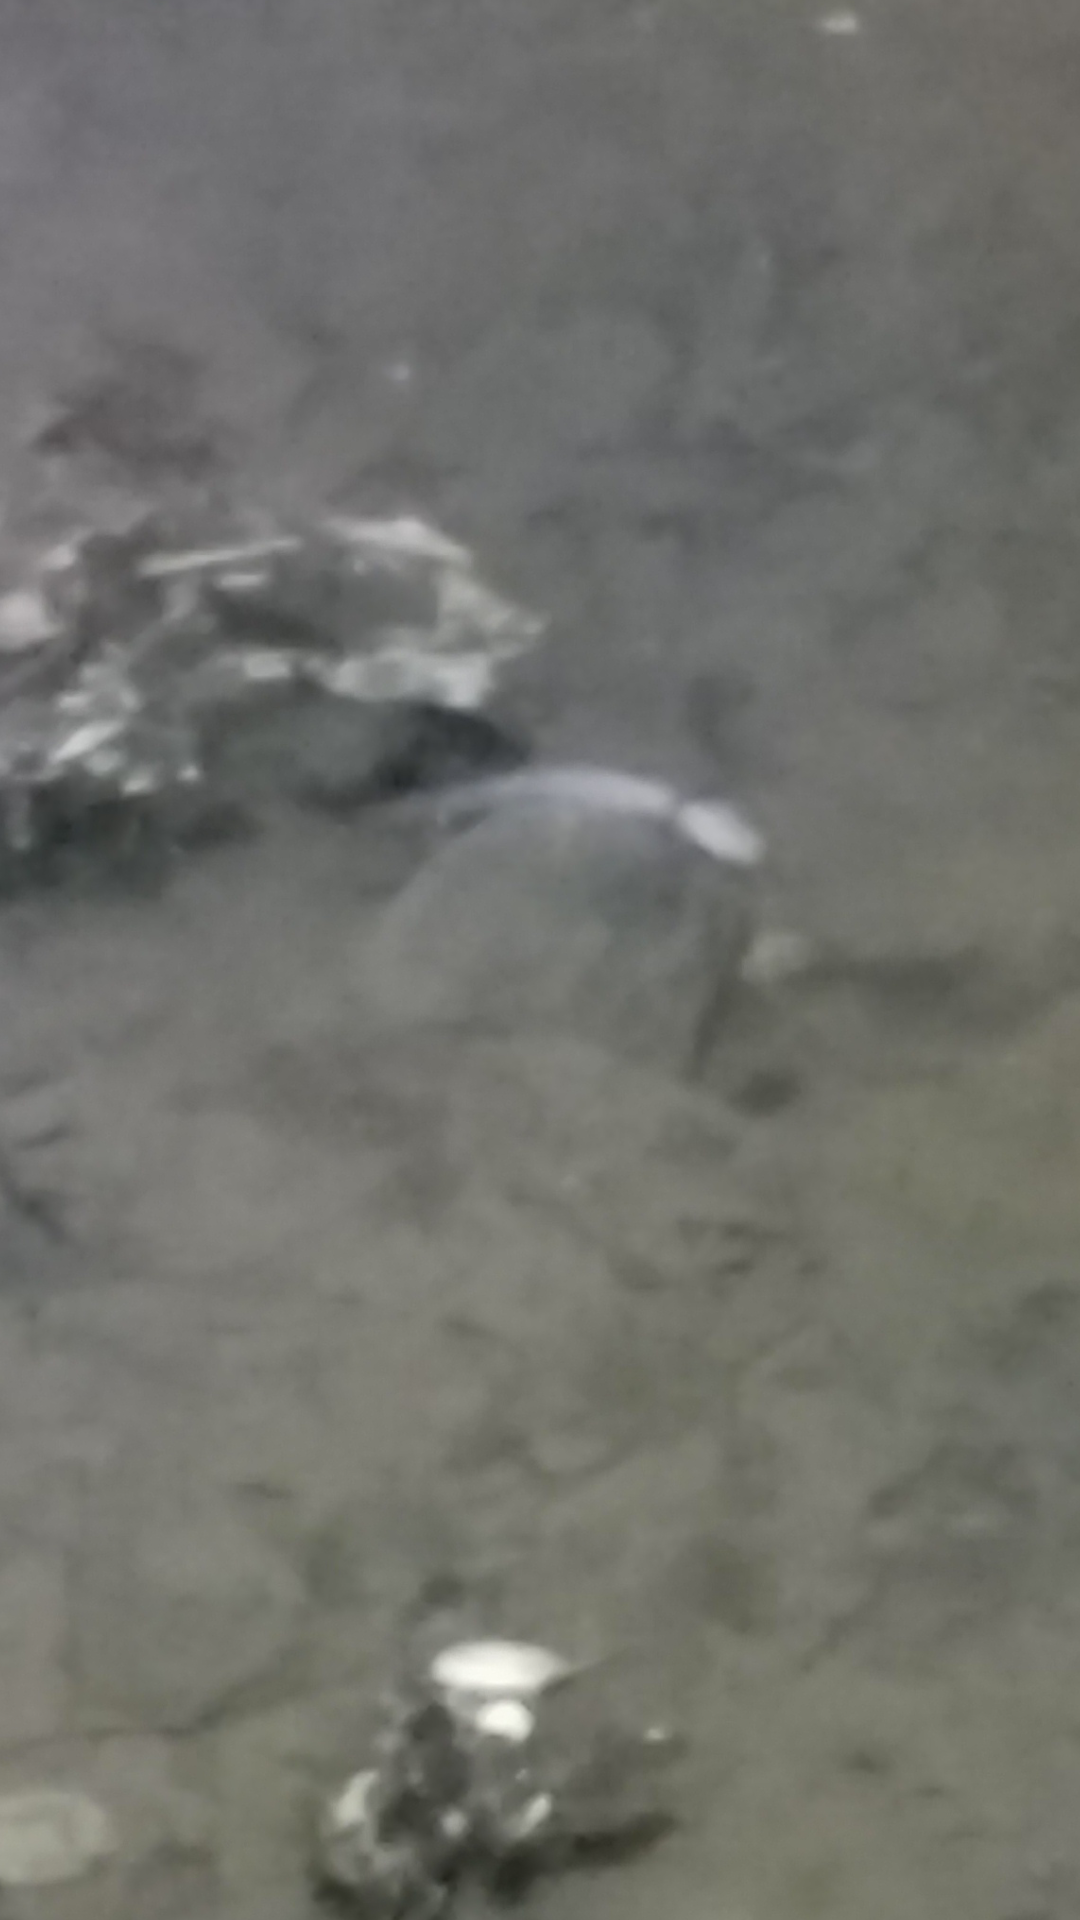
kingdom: Animalia
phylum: Chordata
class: Amphibia
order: Caudata
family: Plethodontidae
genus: Eurycea
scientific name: Eurycea wallacei
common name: Georgia blind salamander
